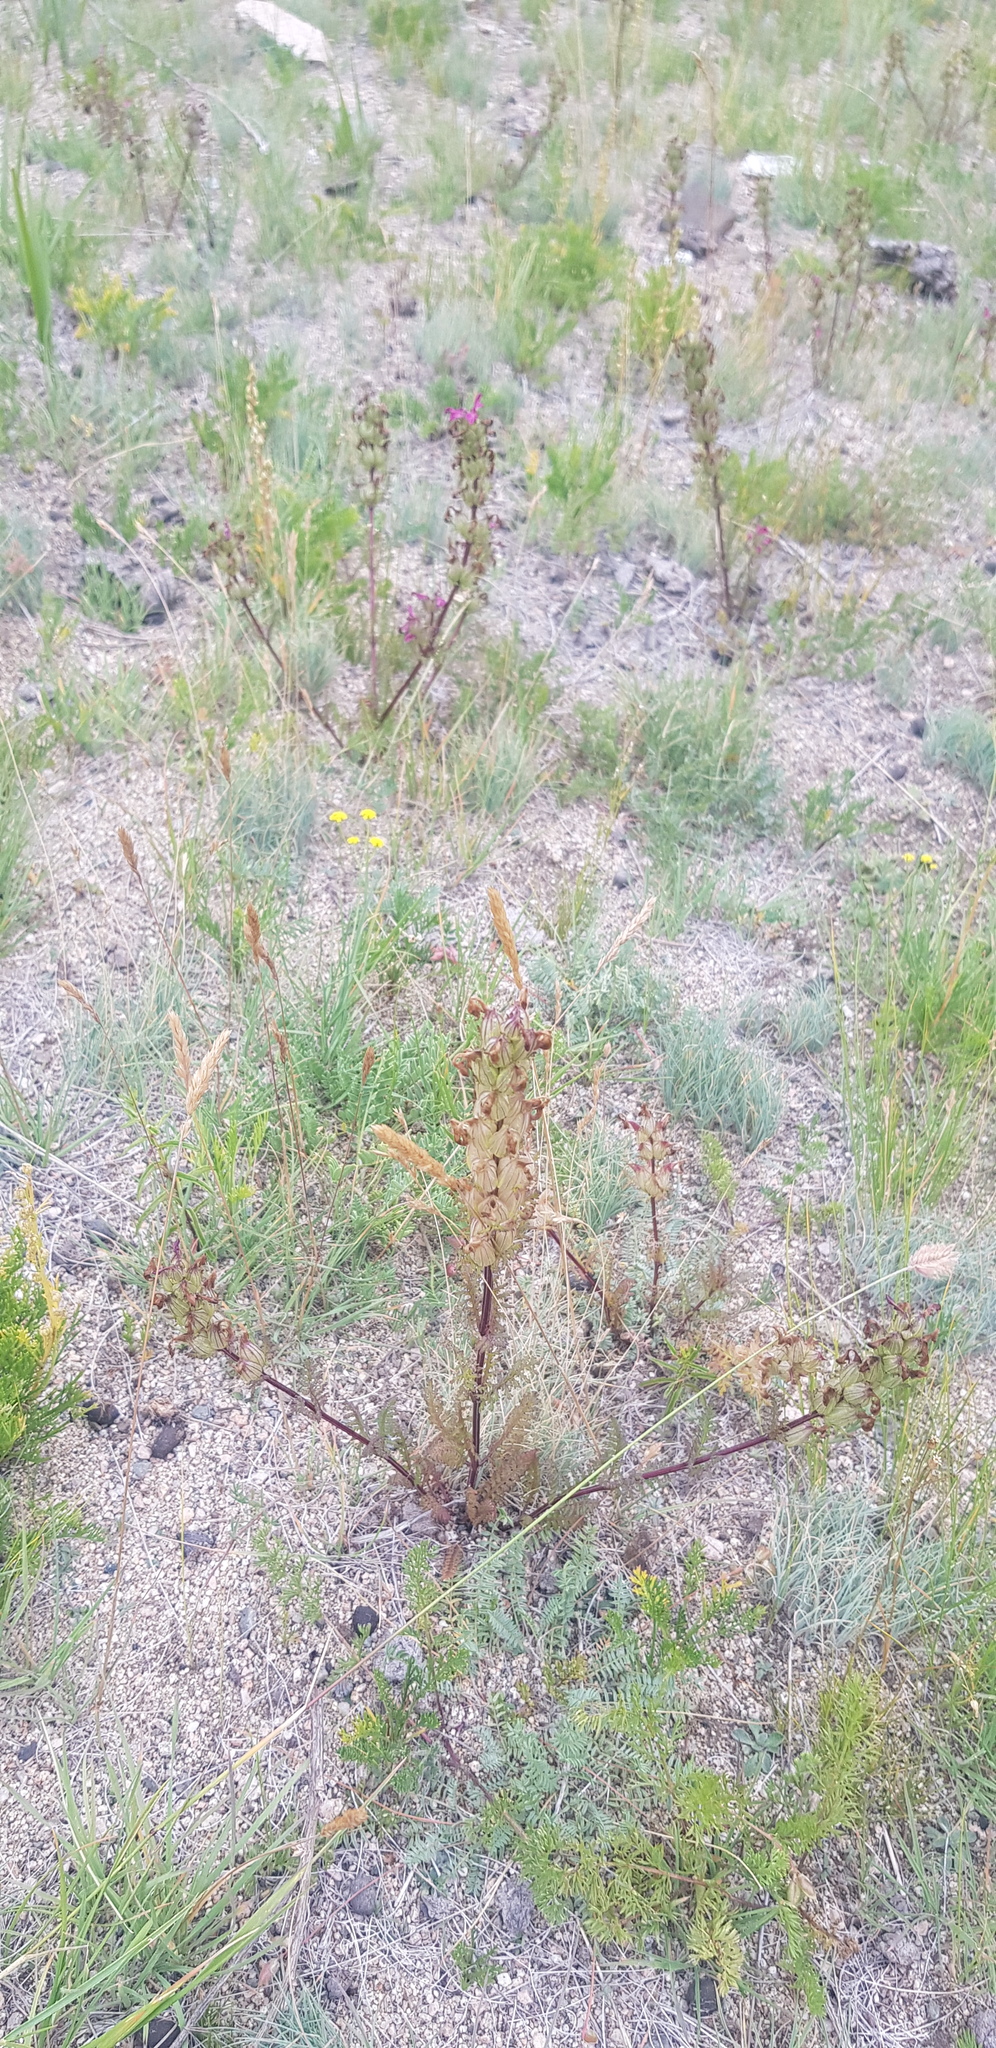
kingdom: Plantae
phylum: Tracheophyta
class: Magnoliopsida
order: Lamiales
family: Orobanchaceae
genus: Pedicularis
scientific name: Pedicularis rubens
